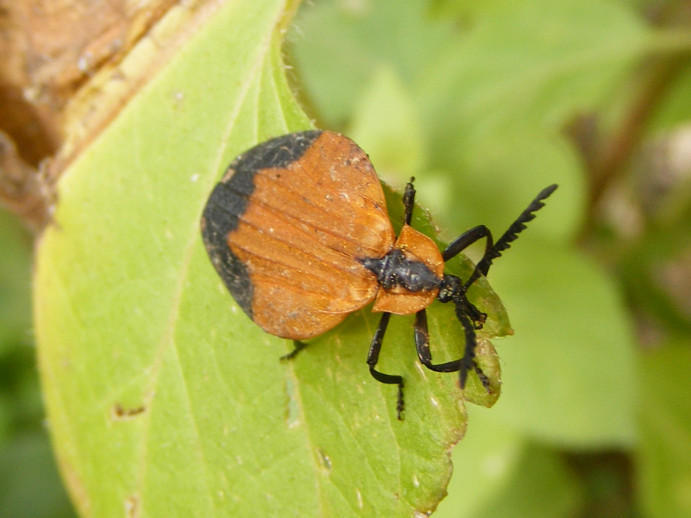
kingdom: Animalia
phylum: Arthropoda
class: Insecta
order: Coleoptera
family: Lycidae
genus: Lycus
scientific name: Lycus
